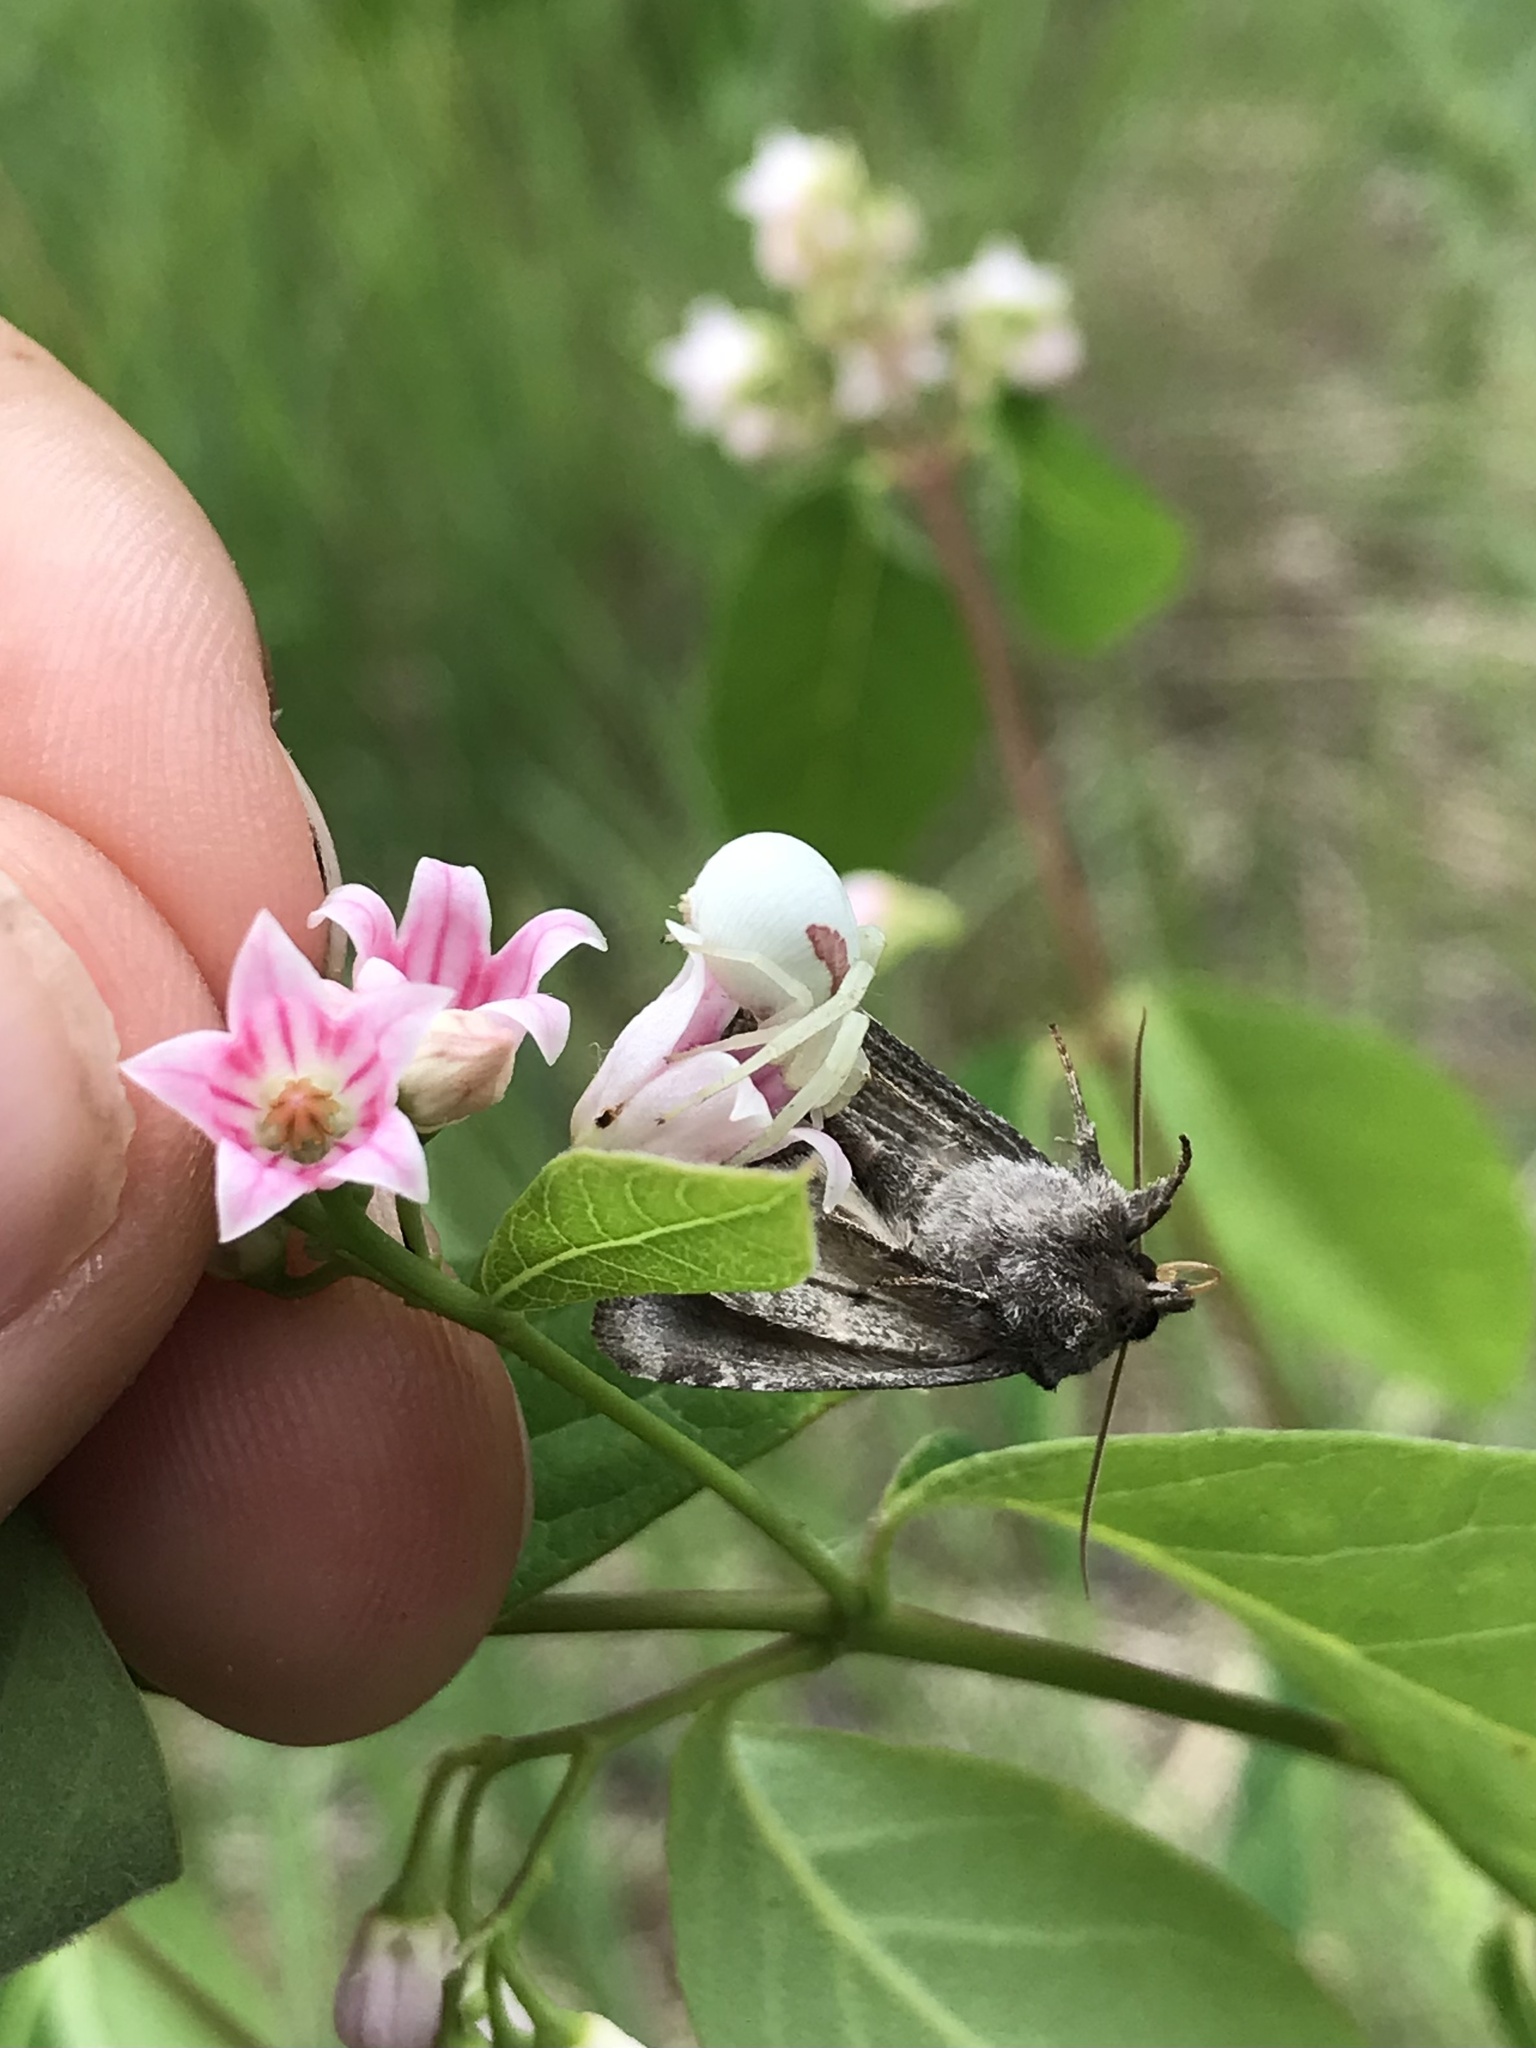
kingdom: Animalia
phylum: Arthropoda
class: Arachnida
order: Araneae
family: Thomisidae
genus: Misumena
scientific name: Misumena vatia
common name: Goldenrod crab spider
